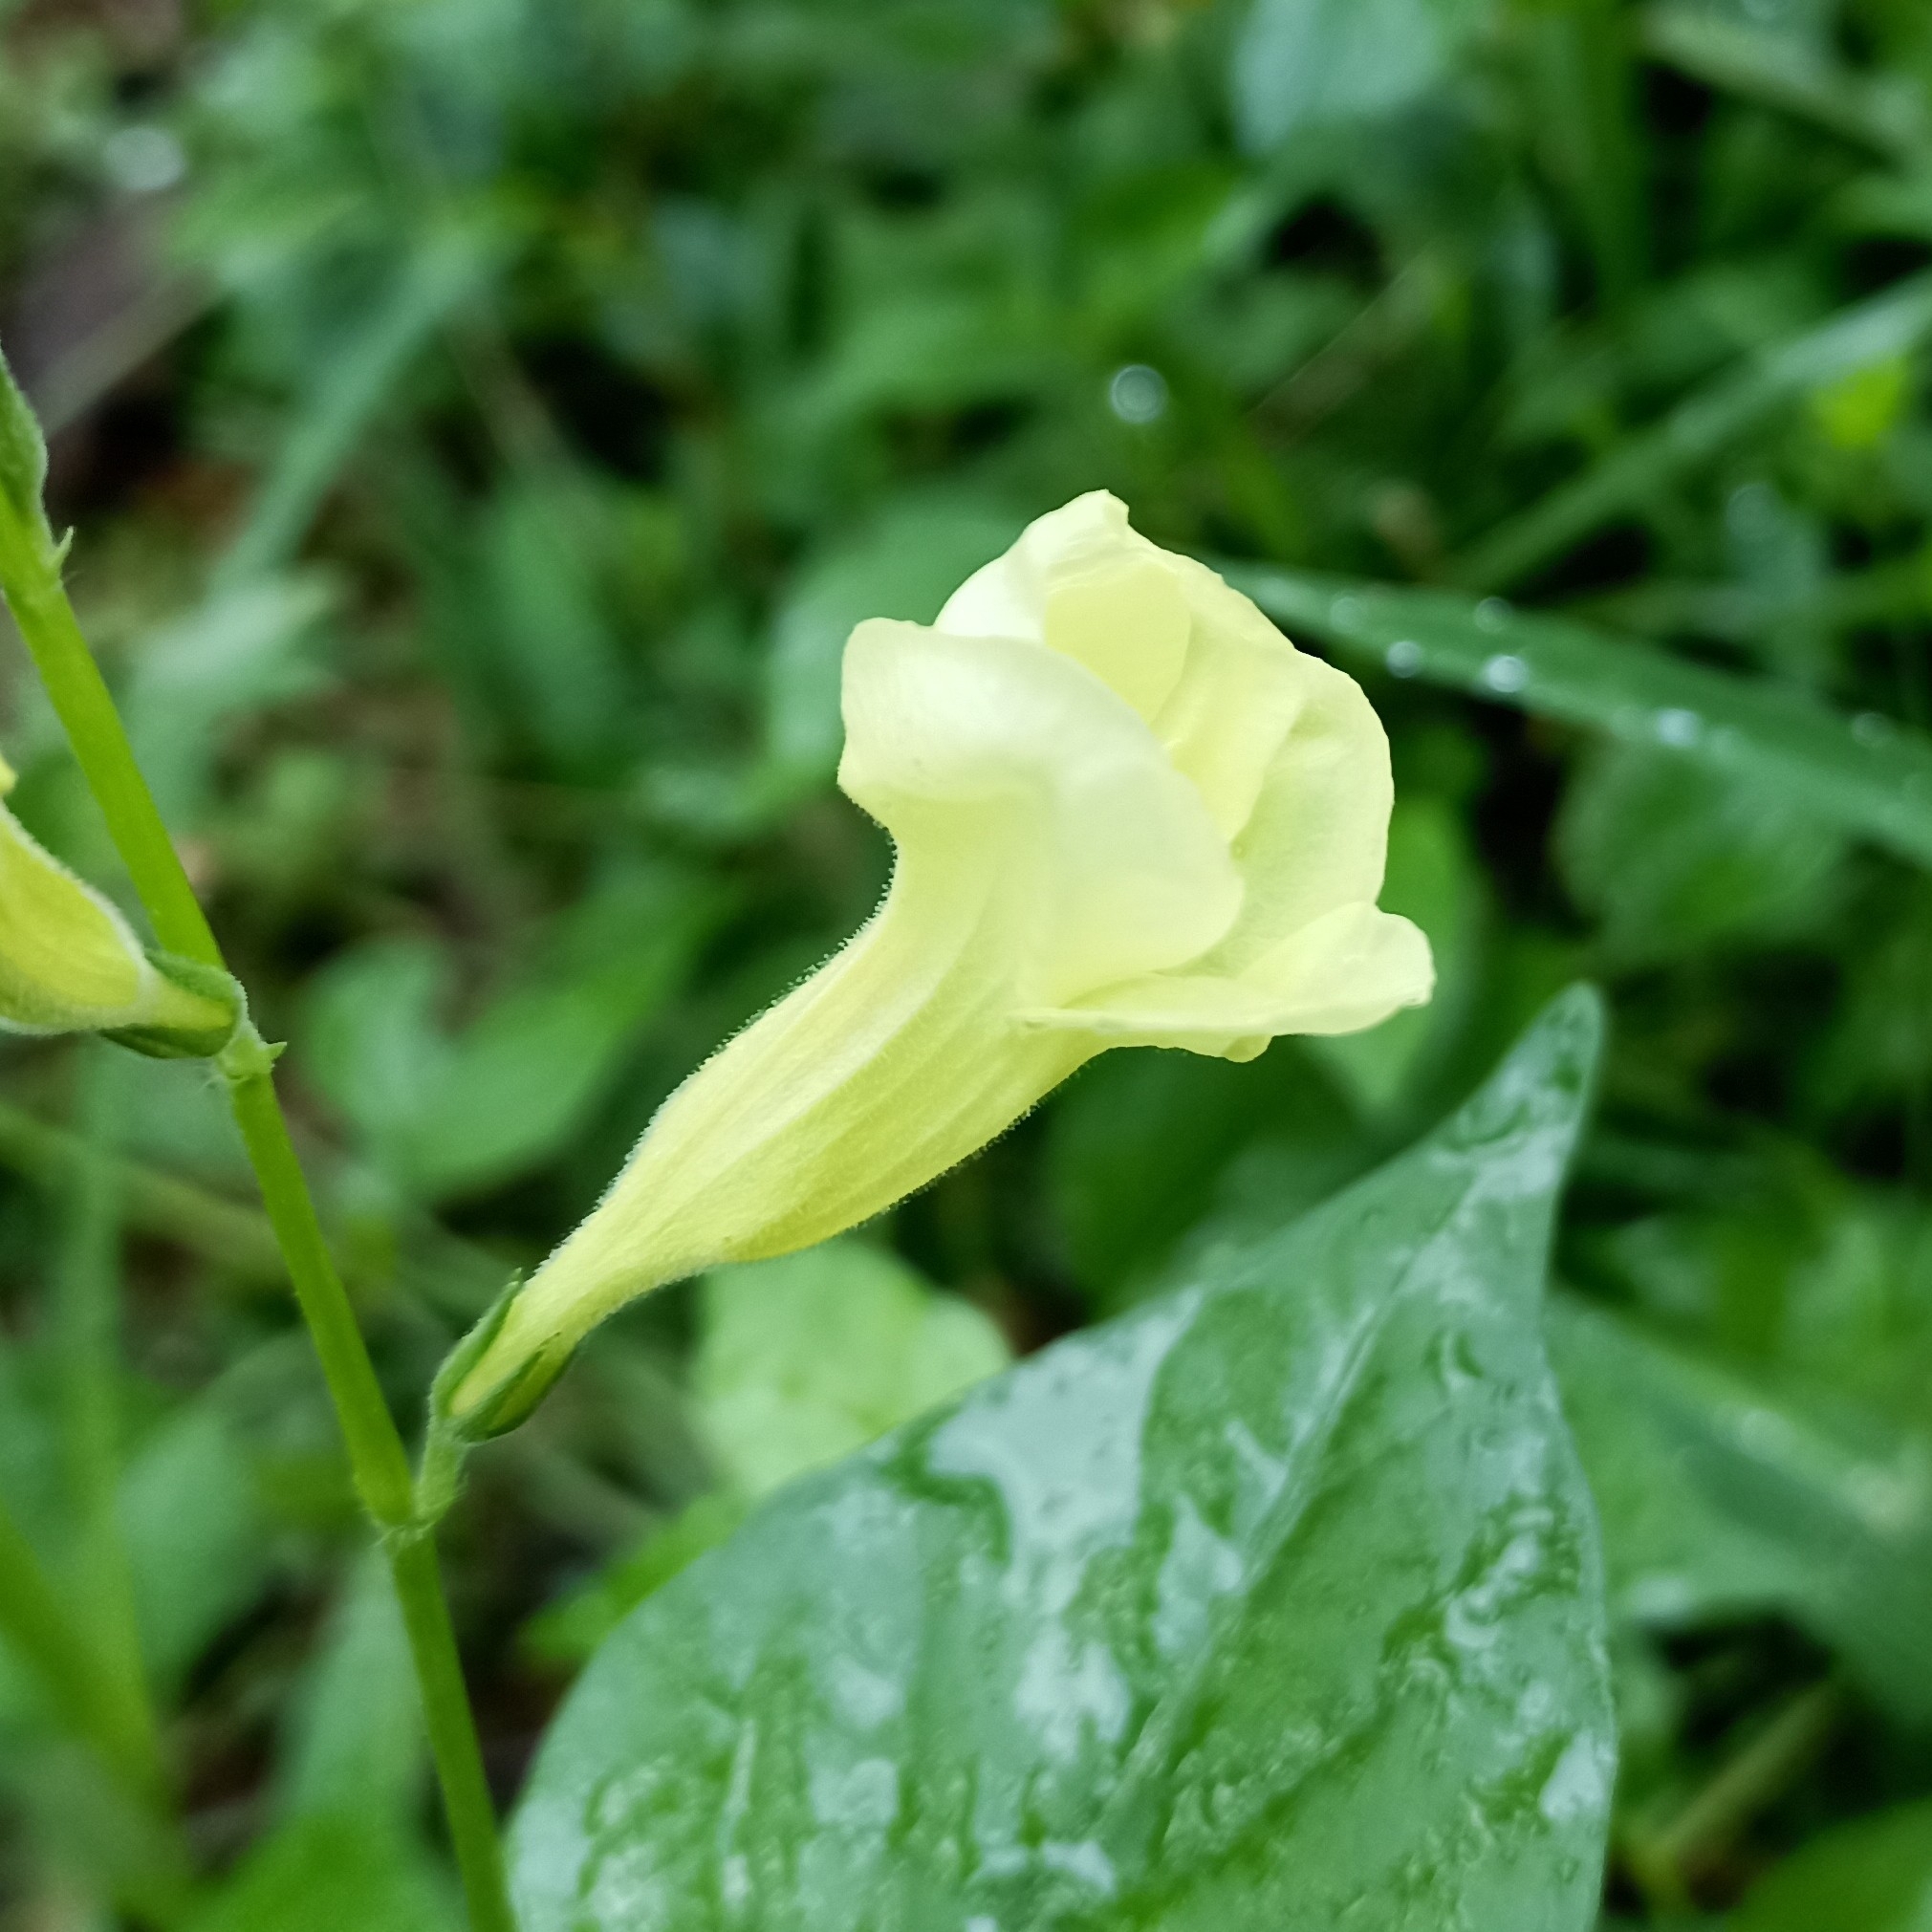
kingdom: Plantae
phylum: Tracheophyta
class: Magnoliopsida
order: Lamiales
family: Acanthaceae
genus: Asystasia
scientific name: Asystasia gangetica
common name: Chinese violet
